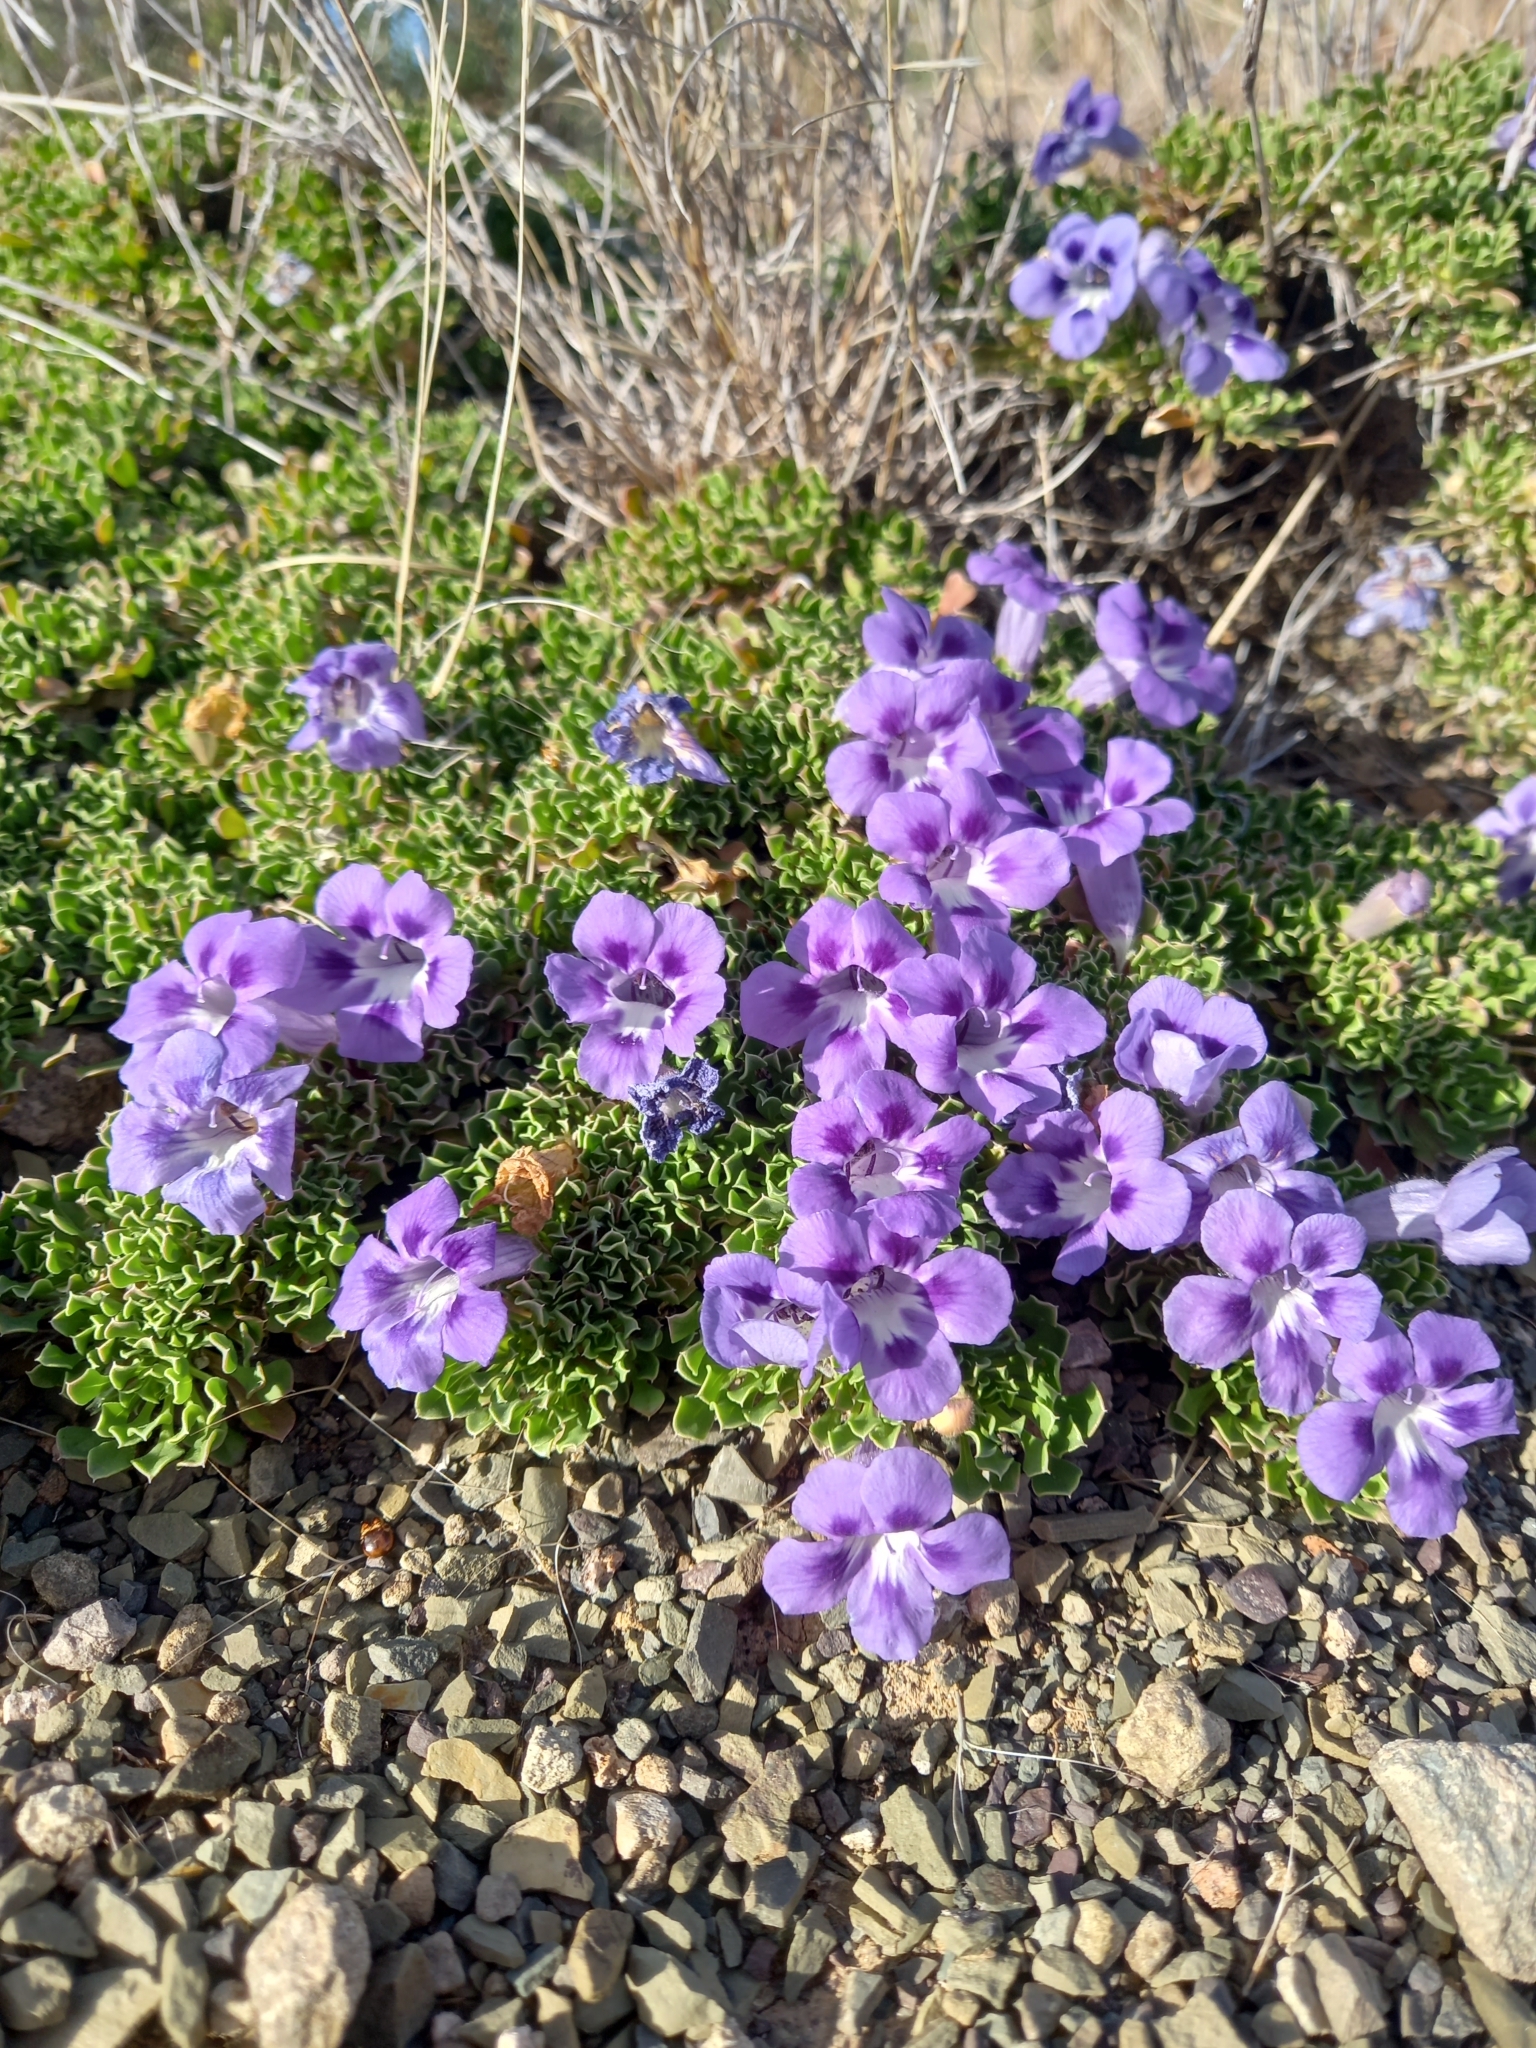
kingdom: Plantae
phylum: Tracheophyta
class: Magnoliopsida
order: Lamiales
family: Scrophulariaceae
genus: Aptosimum
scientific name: Aptosimum procumbens
